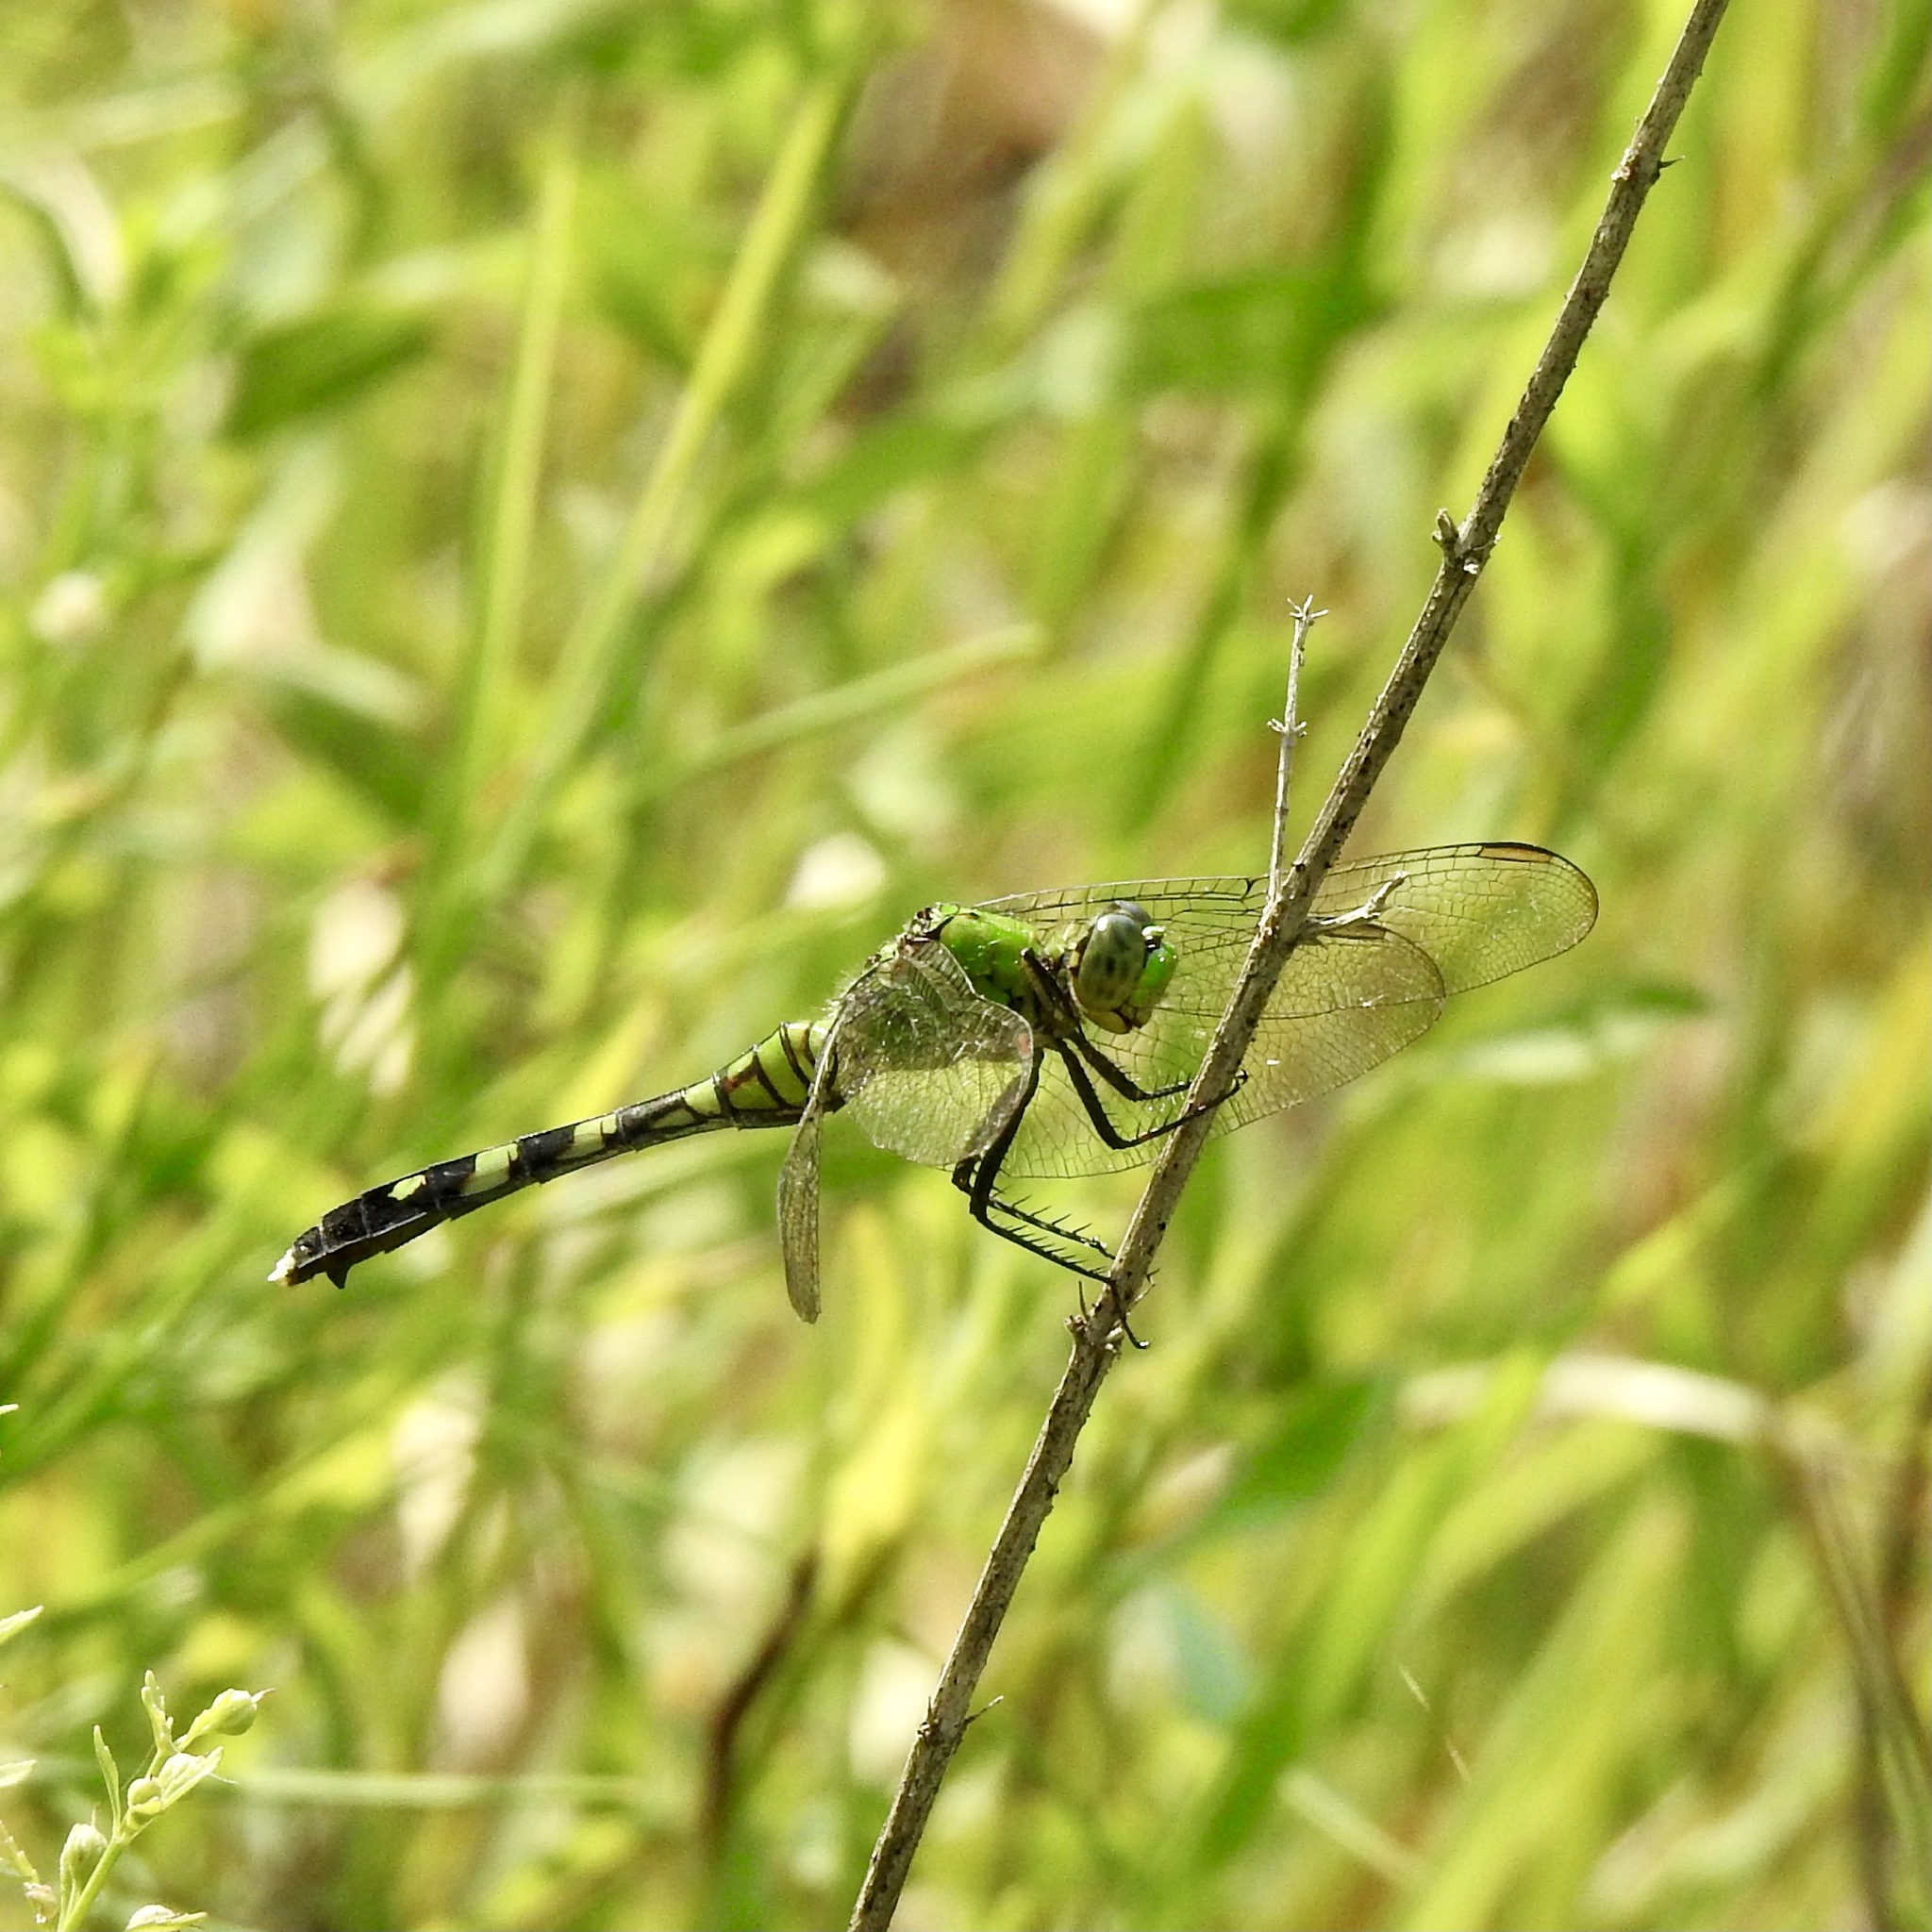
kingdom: Animalia
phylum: Arthropoda
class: Insecta
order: Odonata
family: Libellulidae
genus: Erythemis
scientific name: Erythemis simplicicollis
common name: Eastern pondhawk
